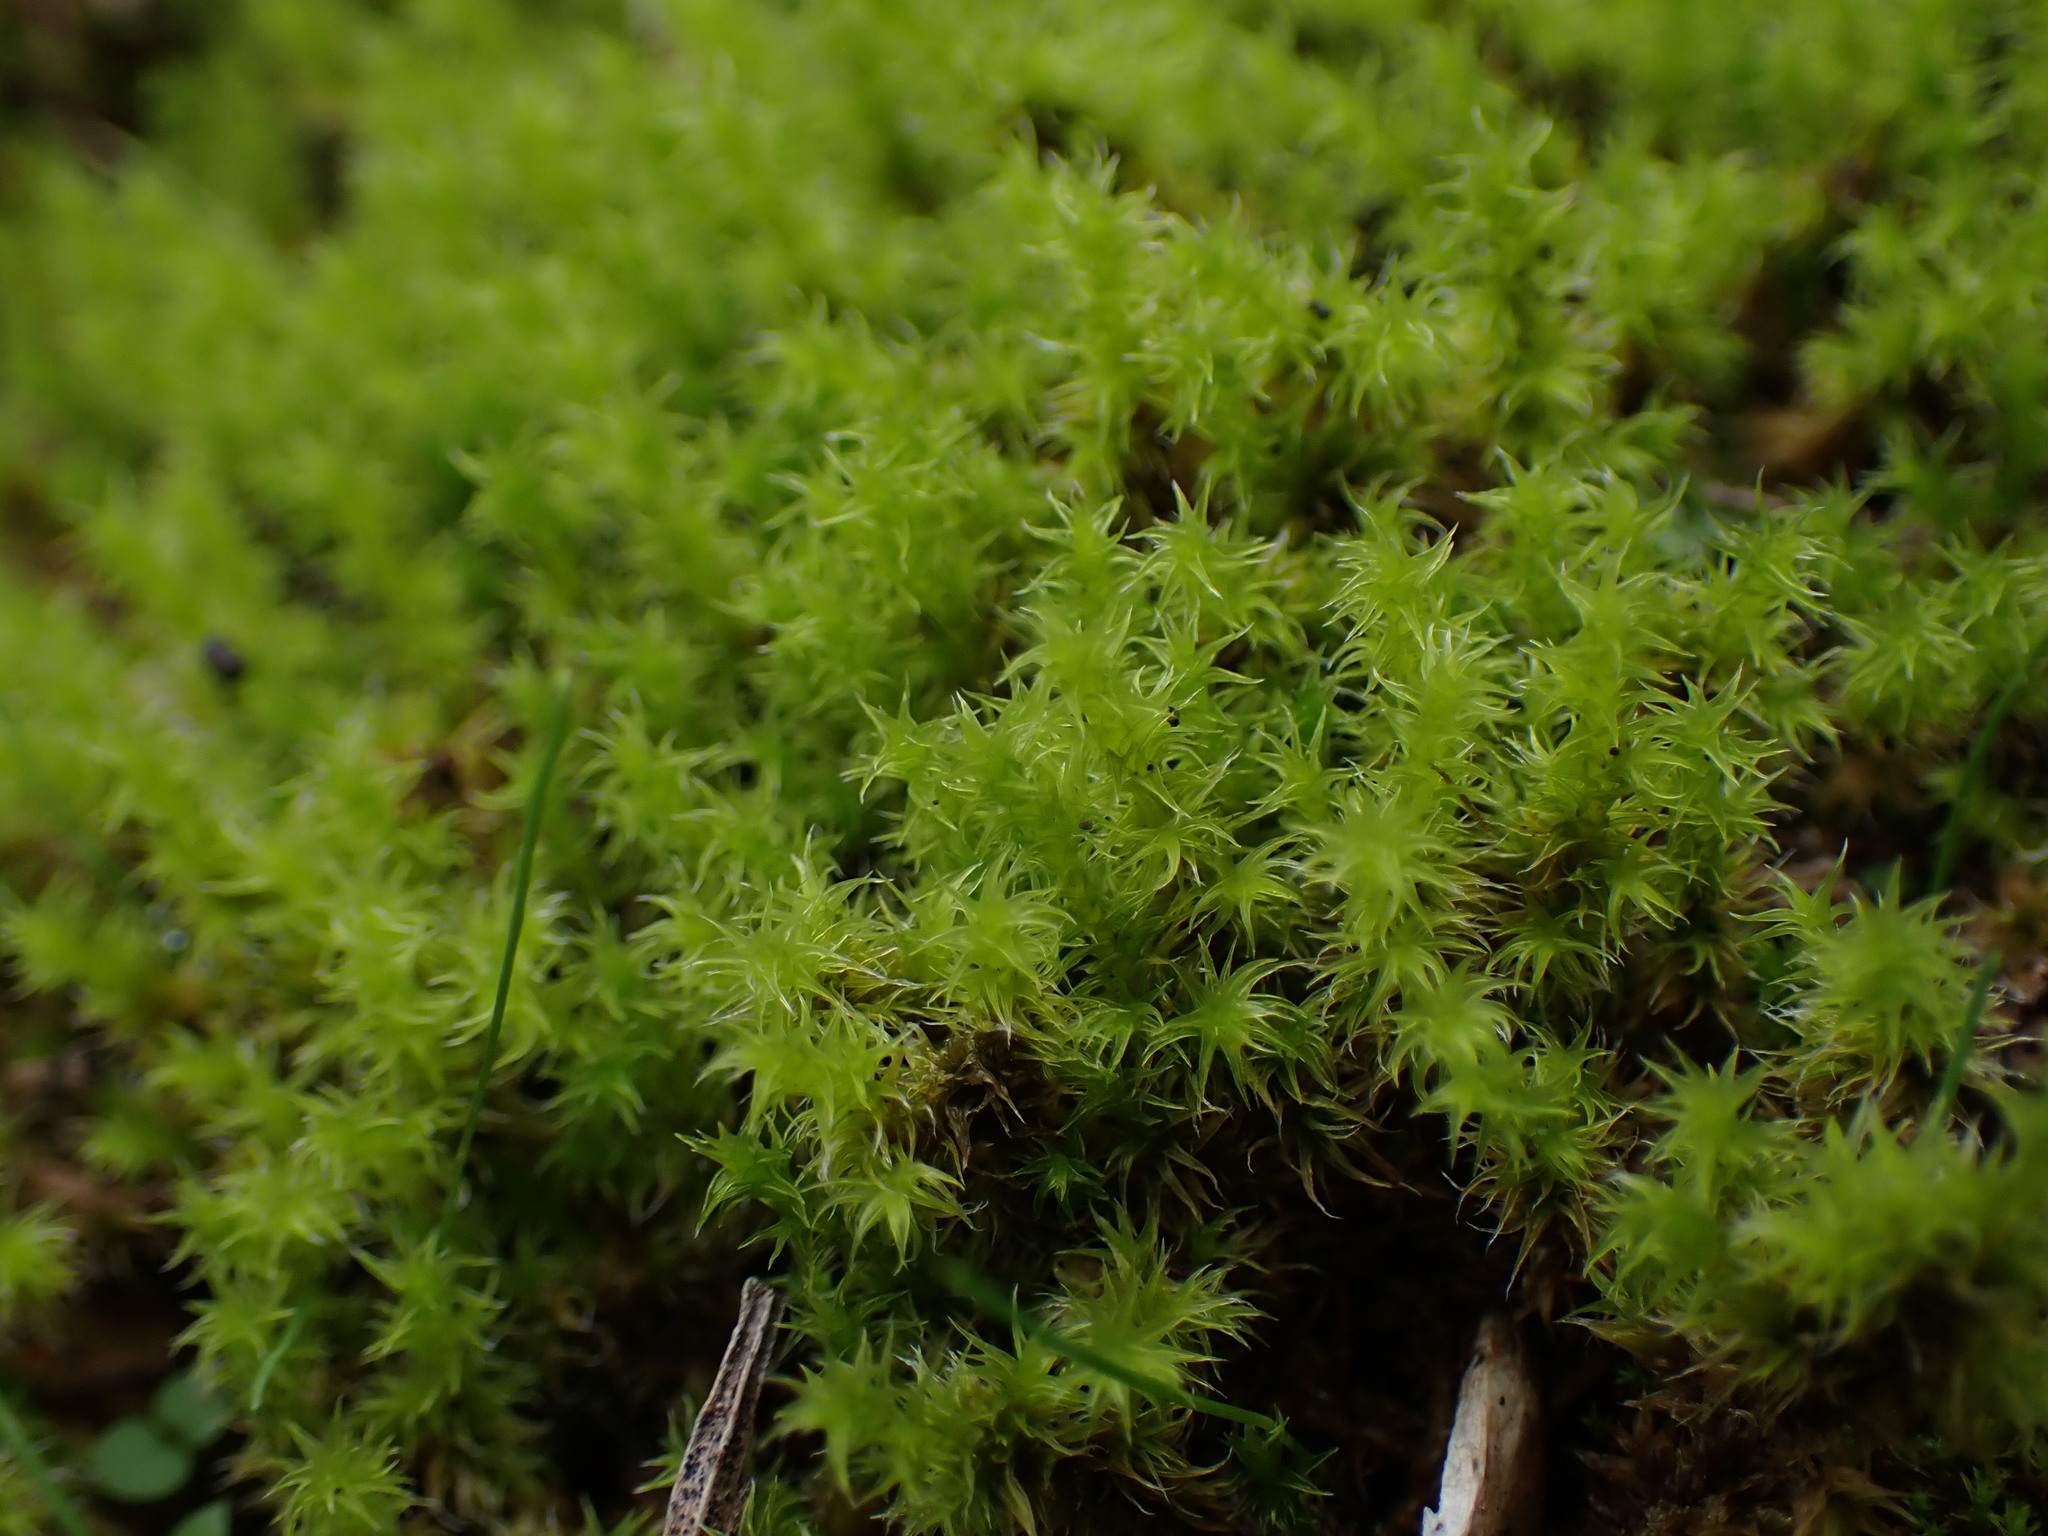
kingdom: Plantae
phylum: Bryophyta
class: Bryopsida
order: Grimmiales
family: Grimmiaceae
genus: Niphotrichum
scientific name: Niphotrichum elongatum
